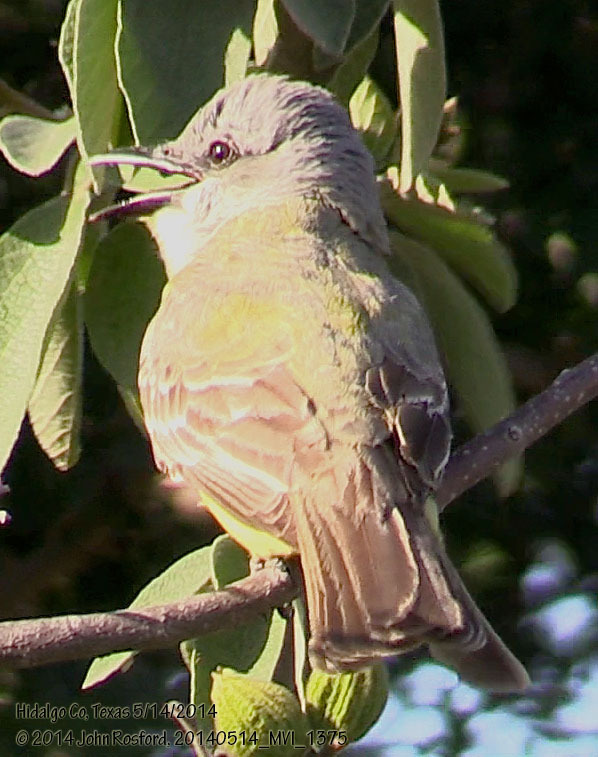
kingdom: Animalia
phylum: Chordata
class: Aves
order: Passeriformes
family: Tyrannidae
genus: Tyrannus
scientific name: Tyrannus couchii
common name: Couch's kingbird
